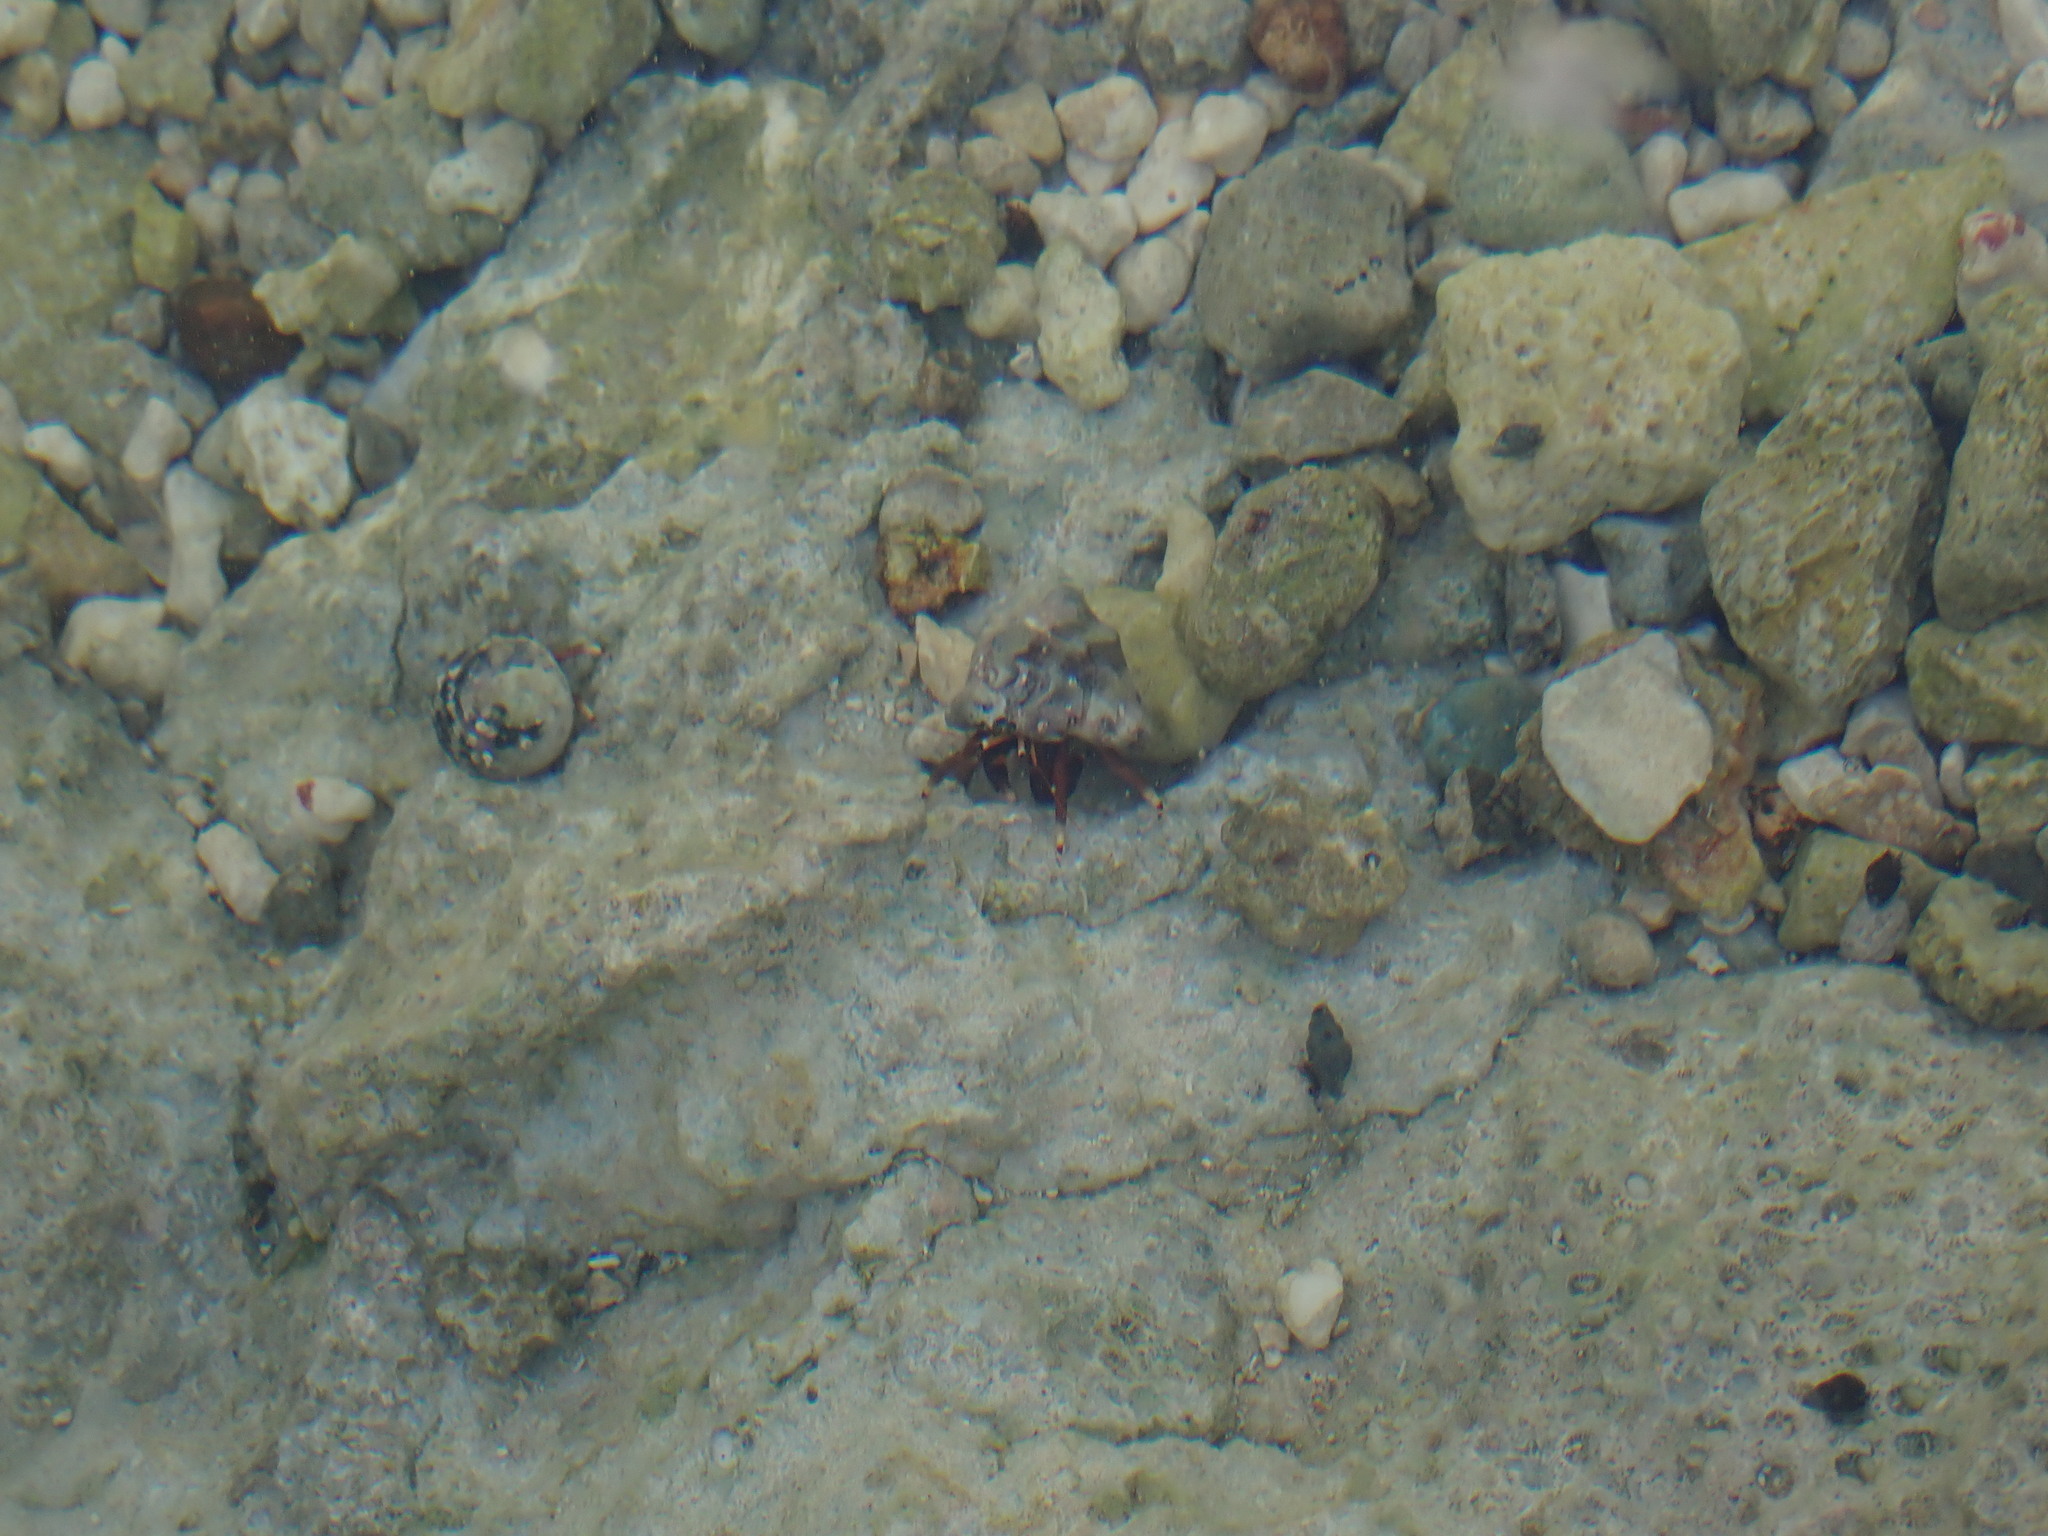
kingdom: Animalia
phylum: Arthropoda
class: Malacostraca
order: Decapoda
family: Diogenidae
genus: Calcinus
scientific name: Calcinus tibicen
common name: Orangeclaw hermit
